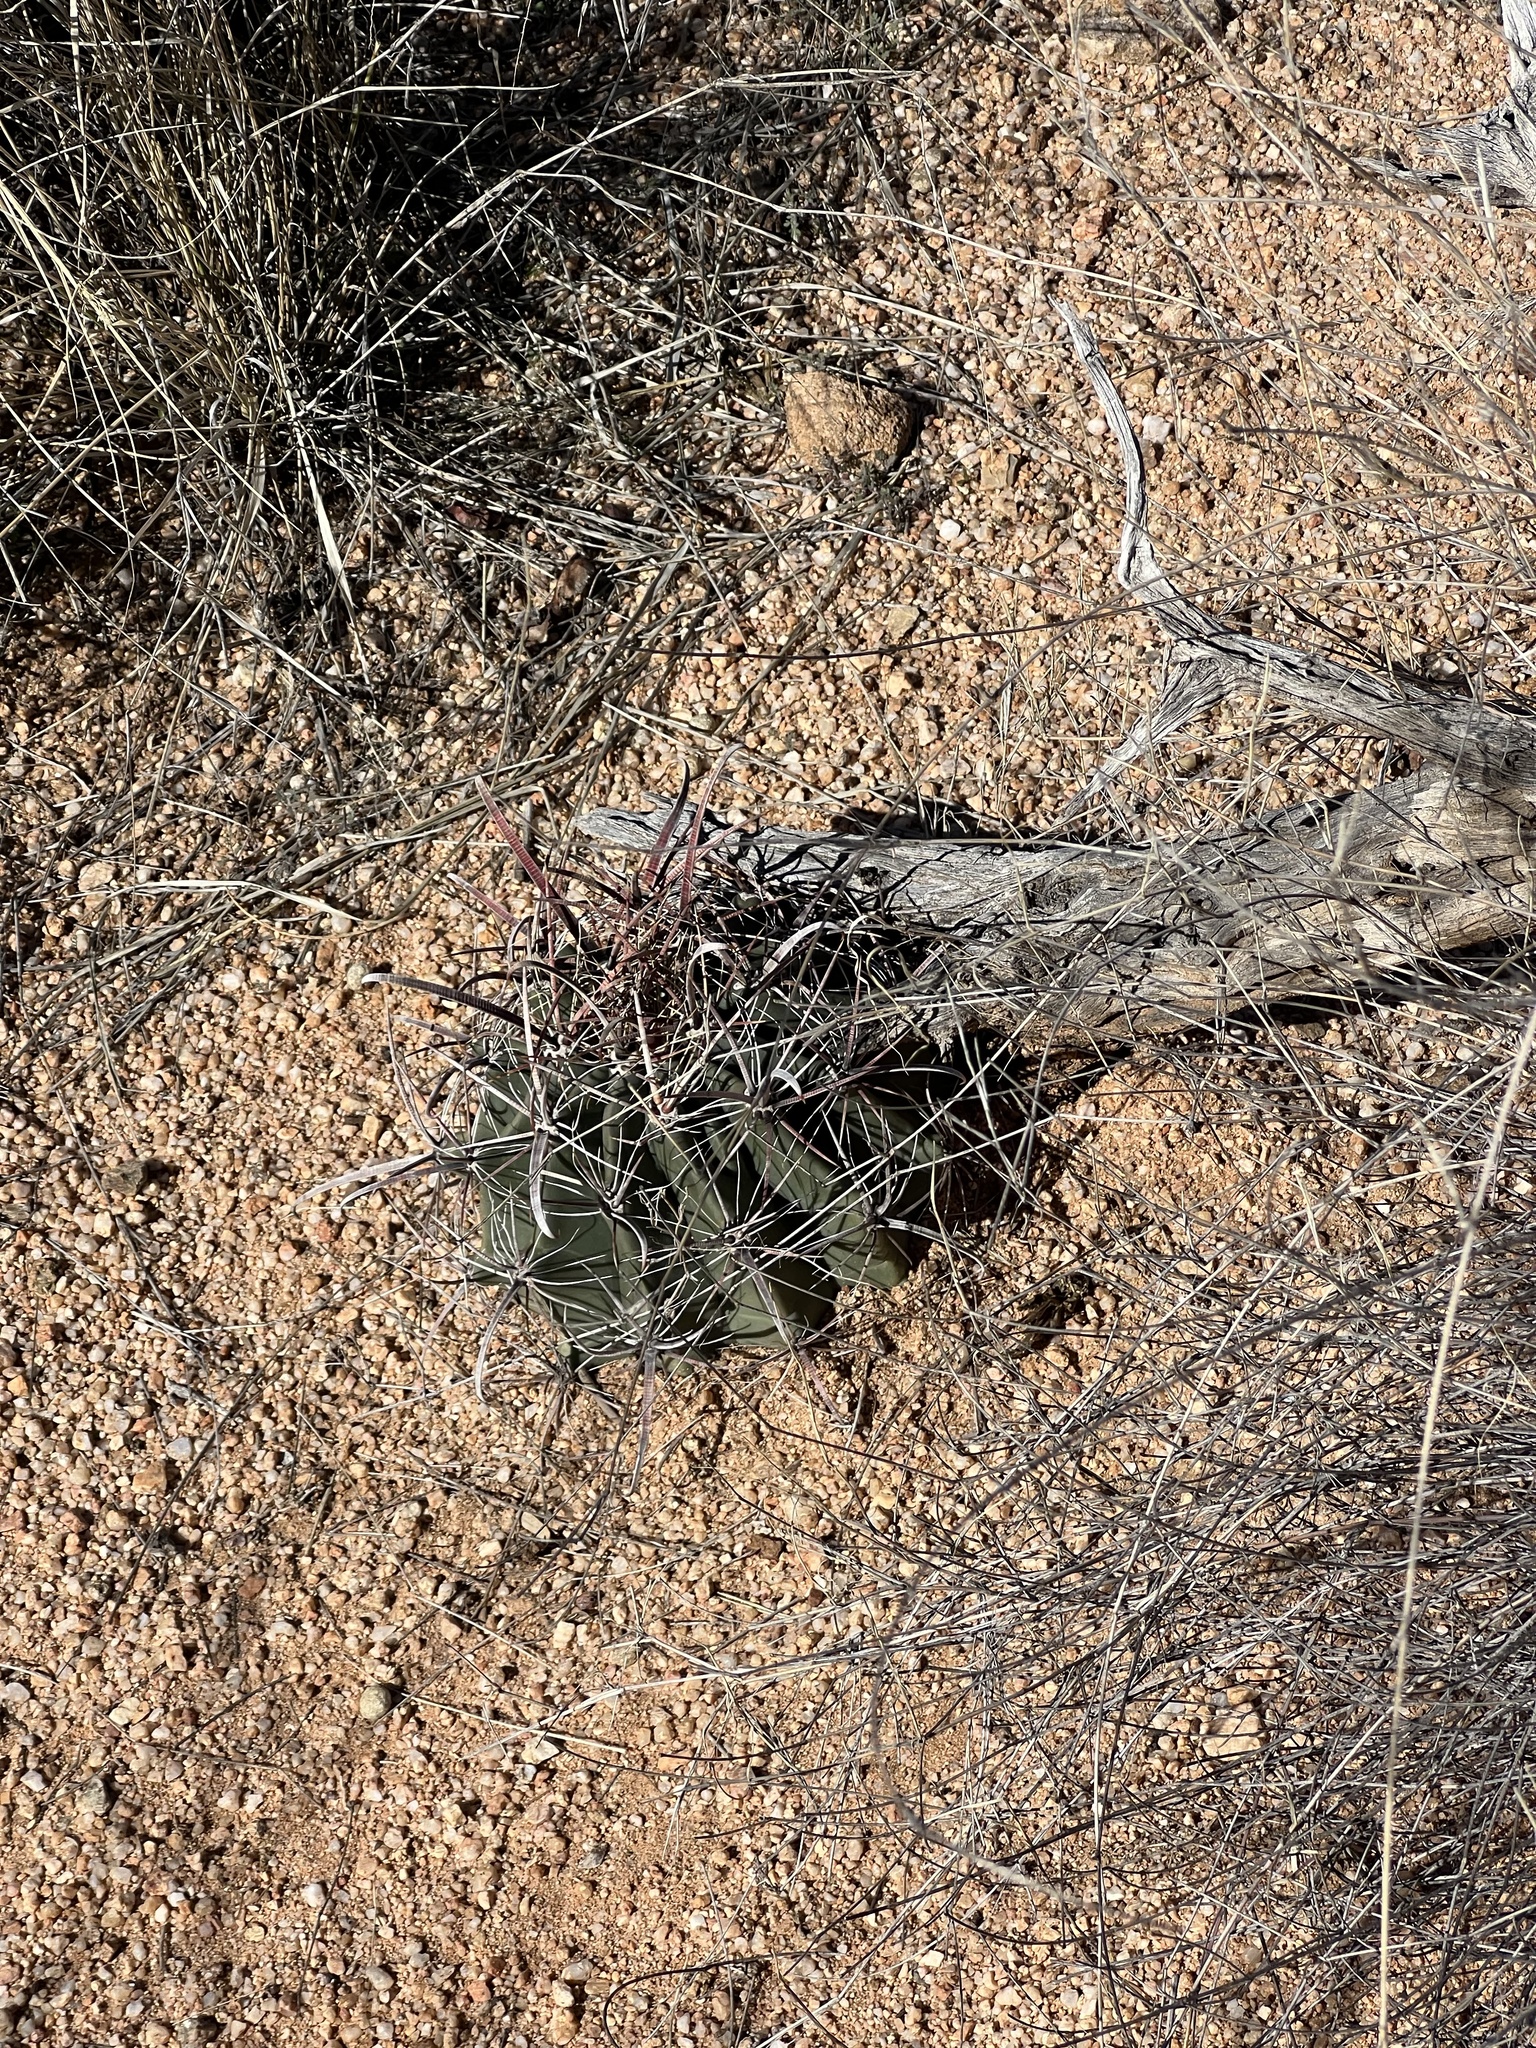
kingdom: Plantae
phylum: Tracheophyta
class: Magnoliopsida
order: Caryophyllales
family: Cactaceae
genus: Ferocactus
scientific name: Ferocactus wislizeni
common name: Candy barrel cactus
